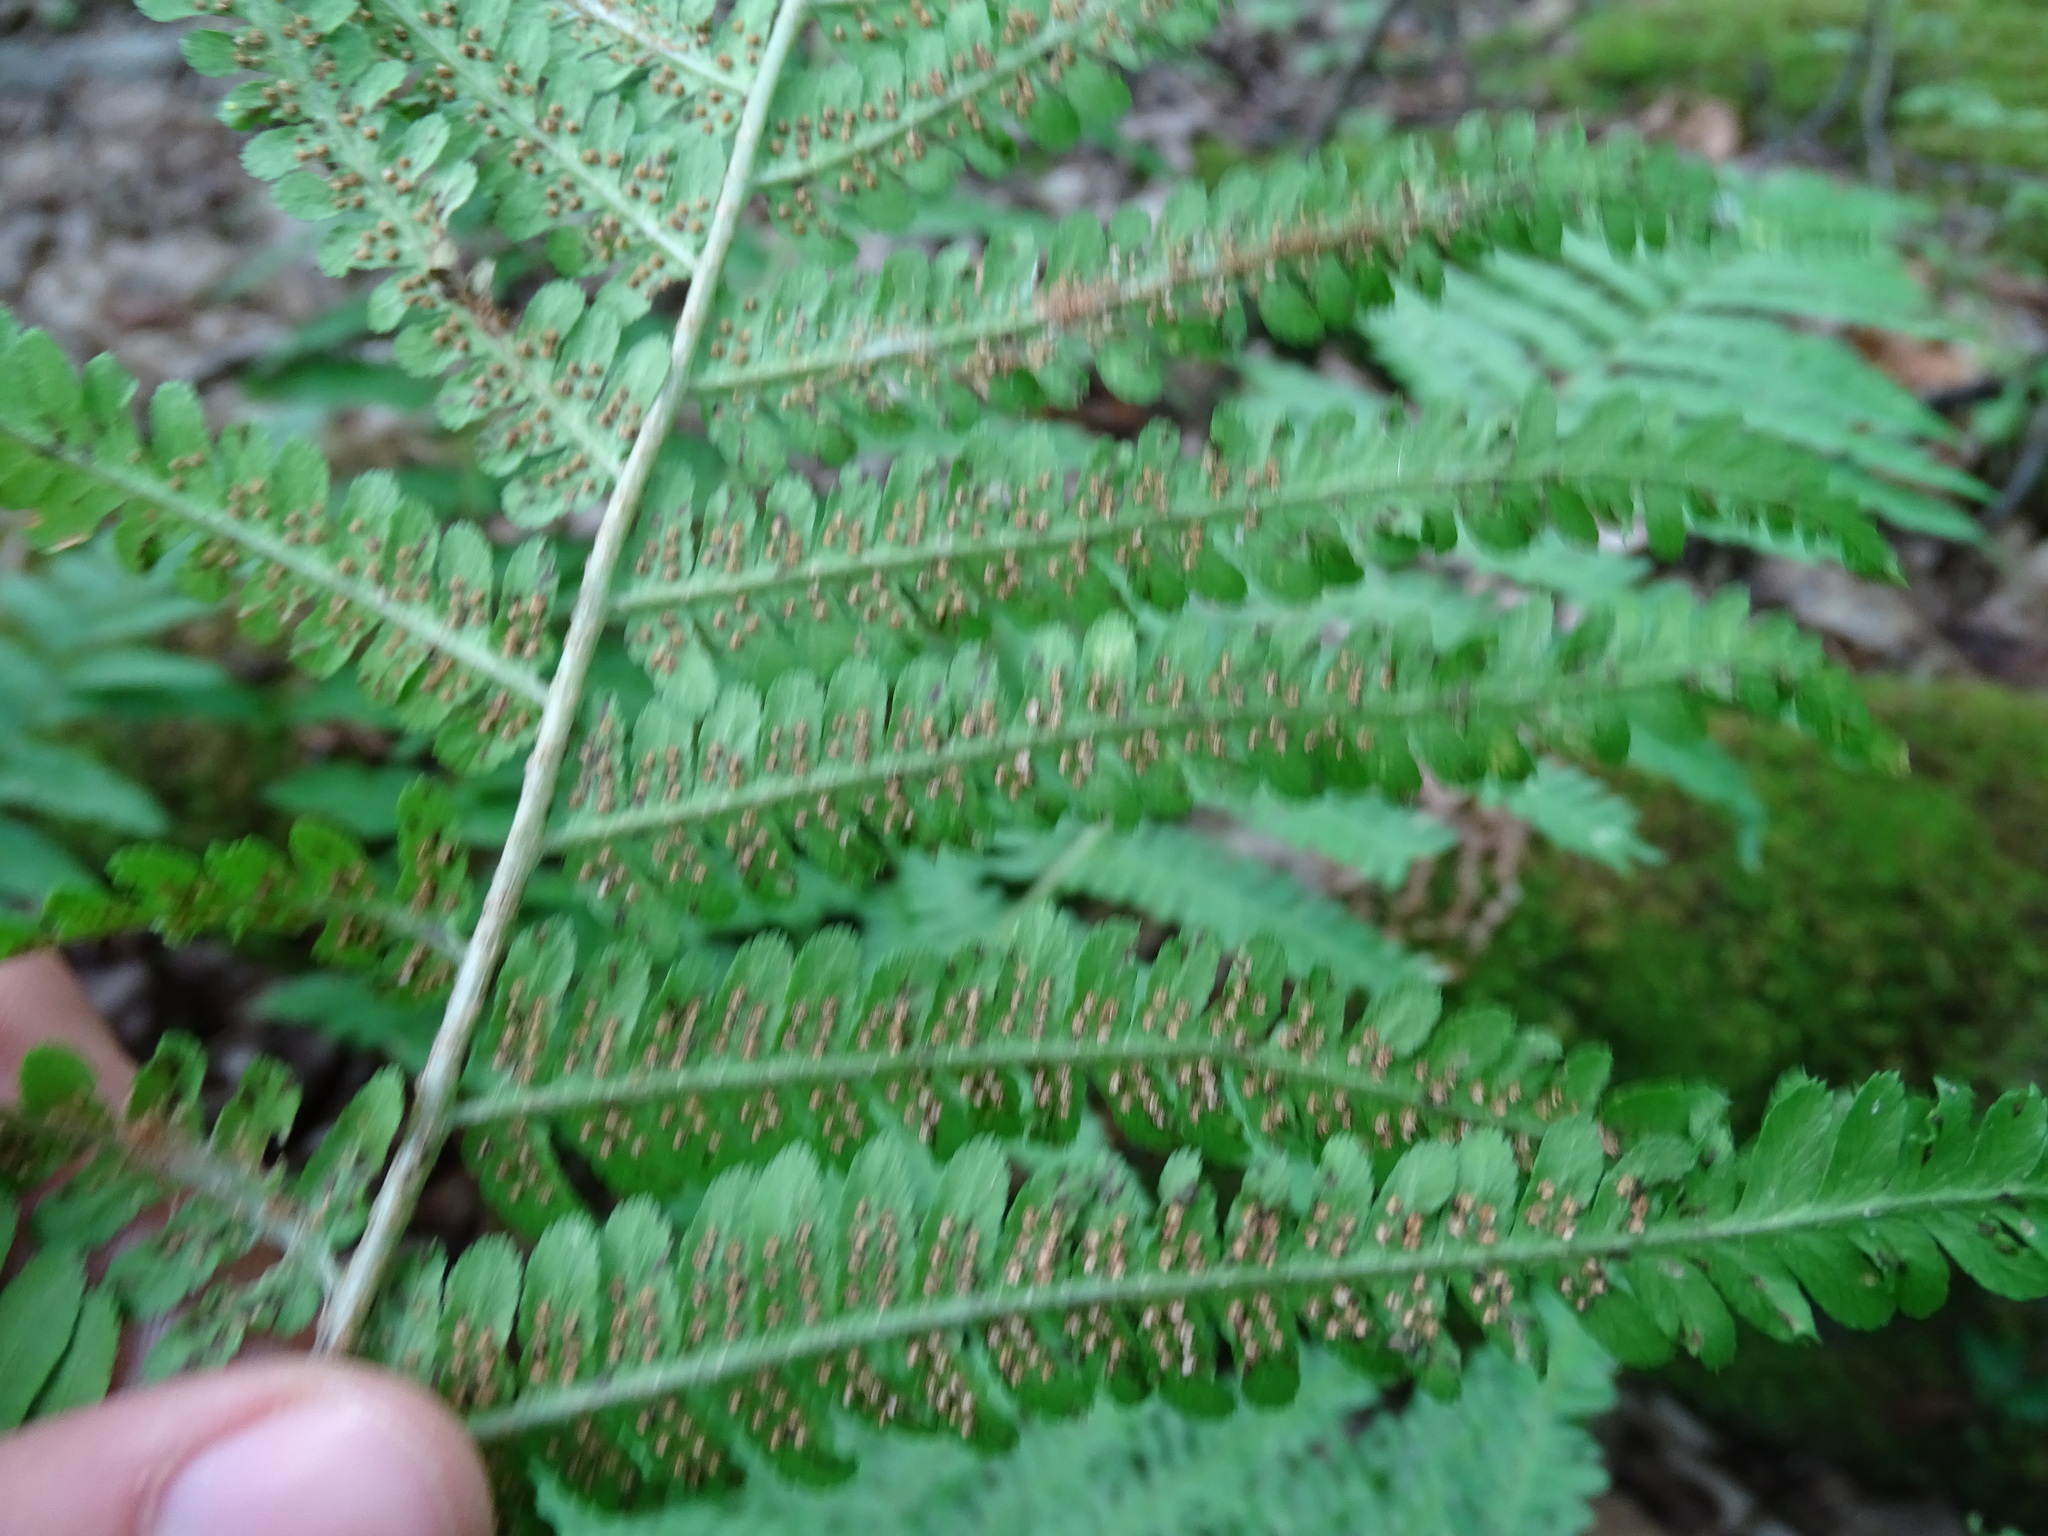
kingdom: Plantae
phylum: Tracheophyta
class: Polypodiopsida
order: Polypodiales
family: Dryopteridaceae
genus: Dryopteris
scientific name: Dryopteris filix-mas
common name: Male fern
